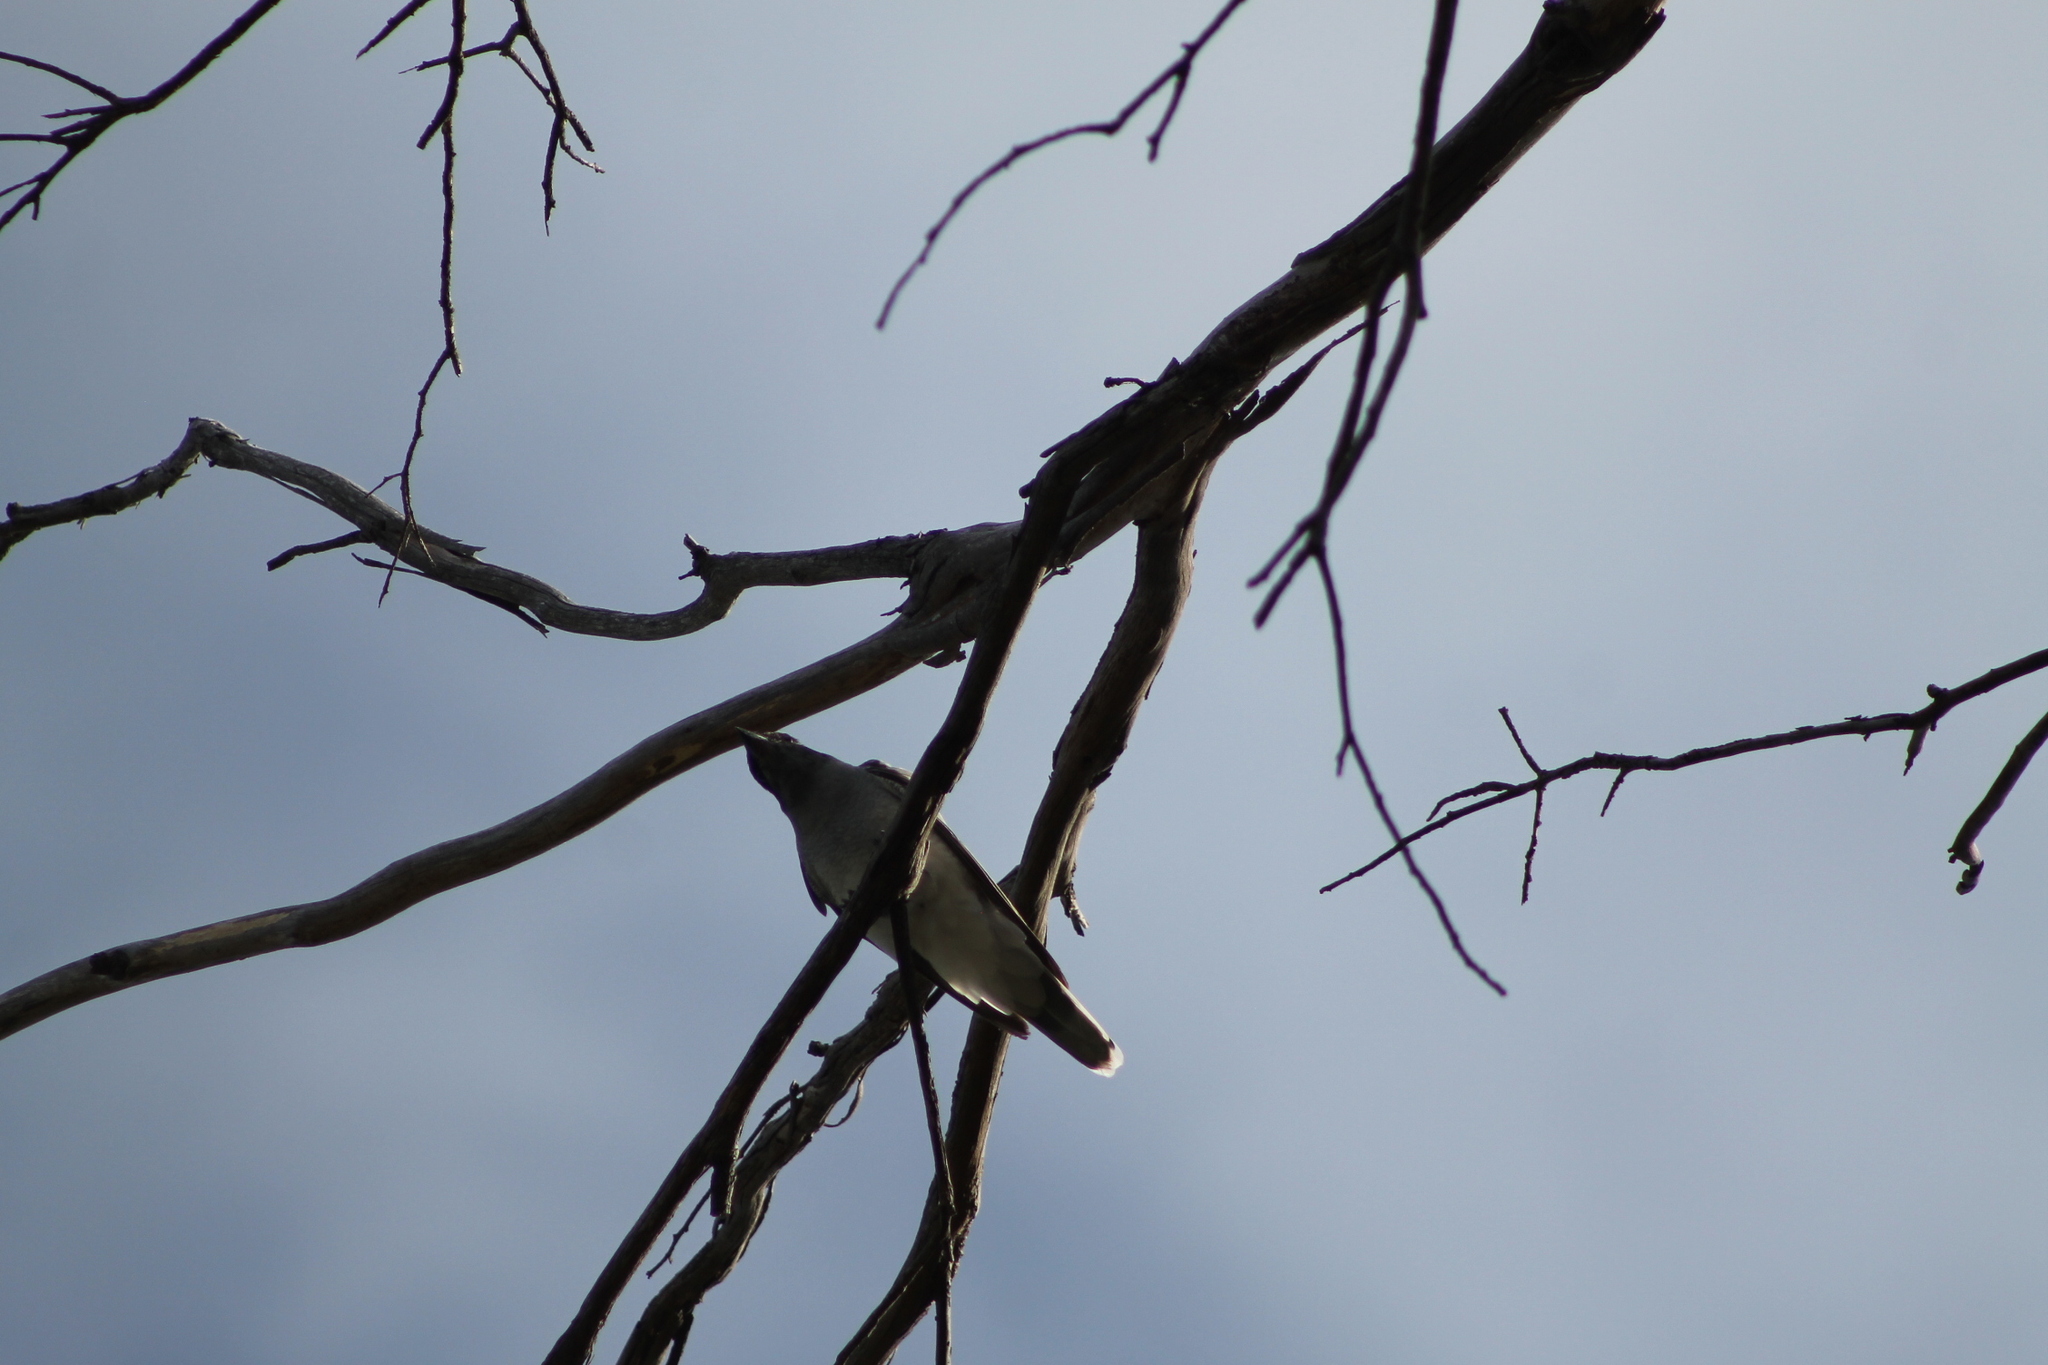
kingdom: Animalia
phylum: Chordata
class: Aves
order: Passeriformes
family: Campephagidae
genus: Coracina
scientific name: Coracina novaehollandiae
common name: Black-faced cuckooshrike
